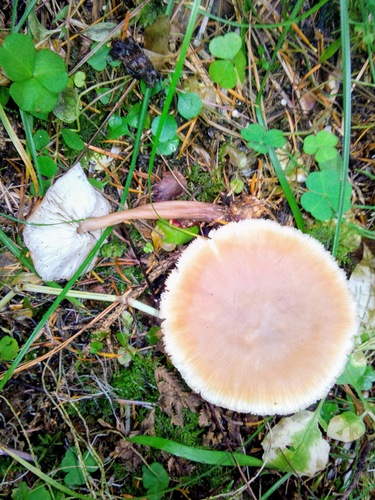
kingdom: Fungi
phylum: Basidiomycota
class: Agaricomycetes
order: Agaricales
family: Omphalotaceae
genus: Gymnopus
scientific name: Gymnopus dryophilus
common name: Penny top
